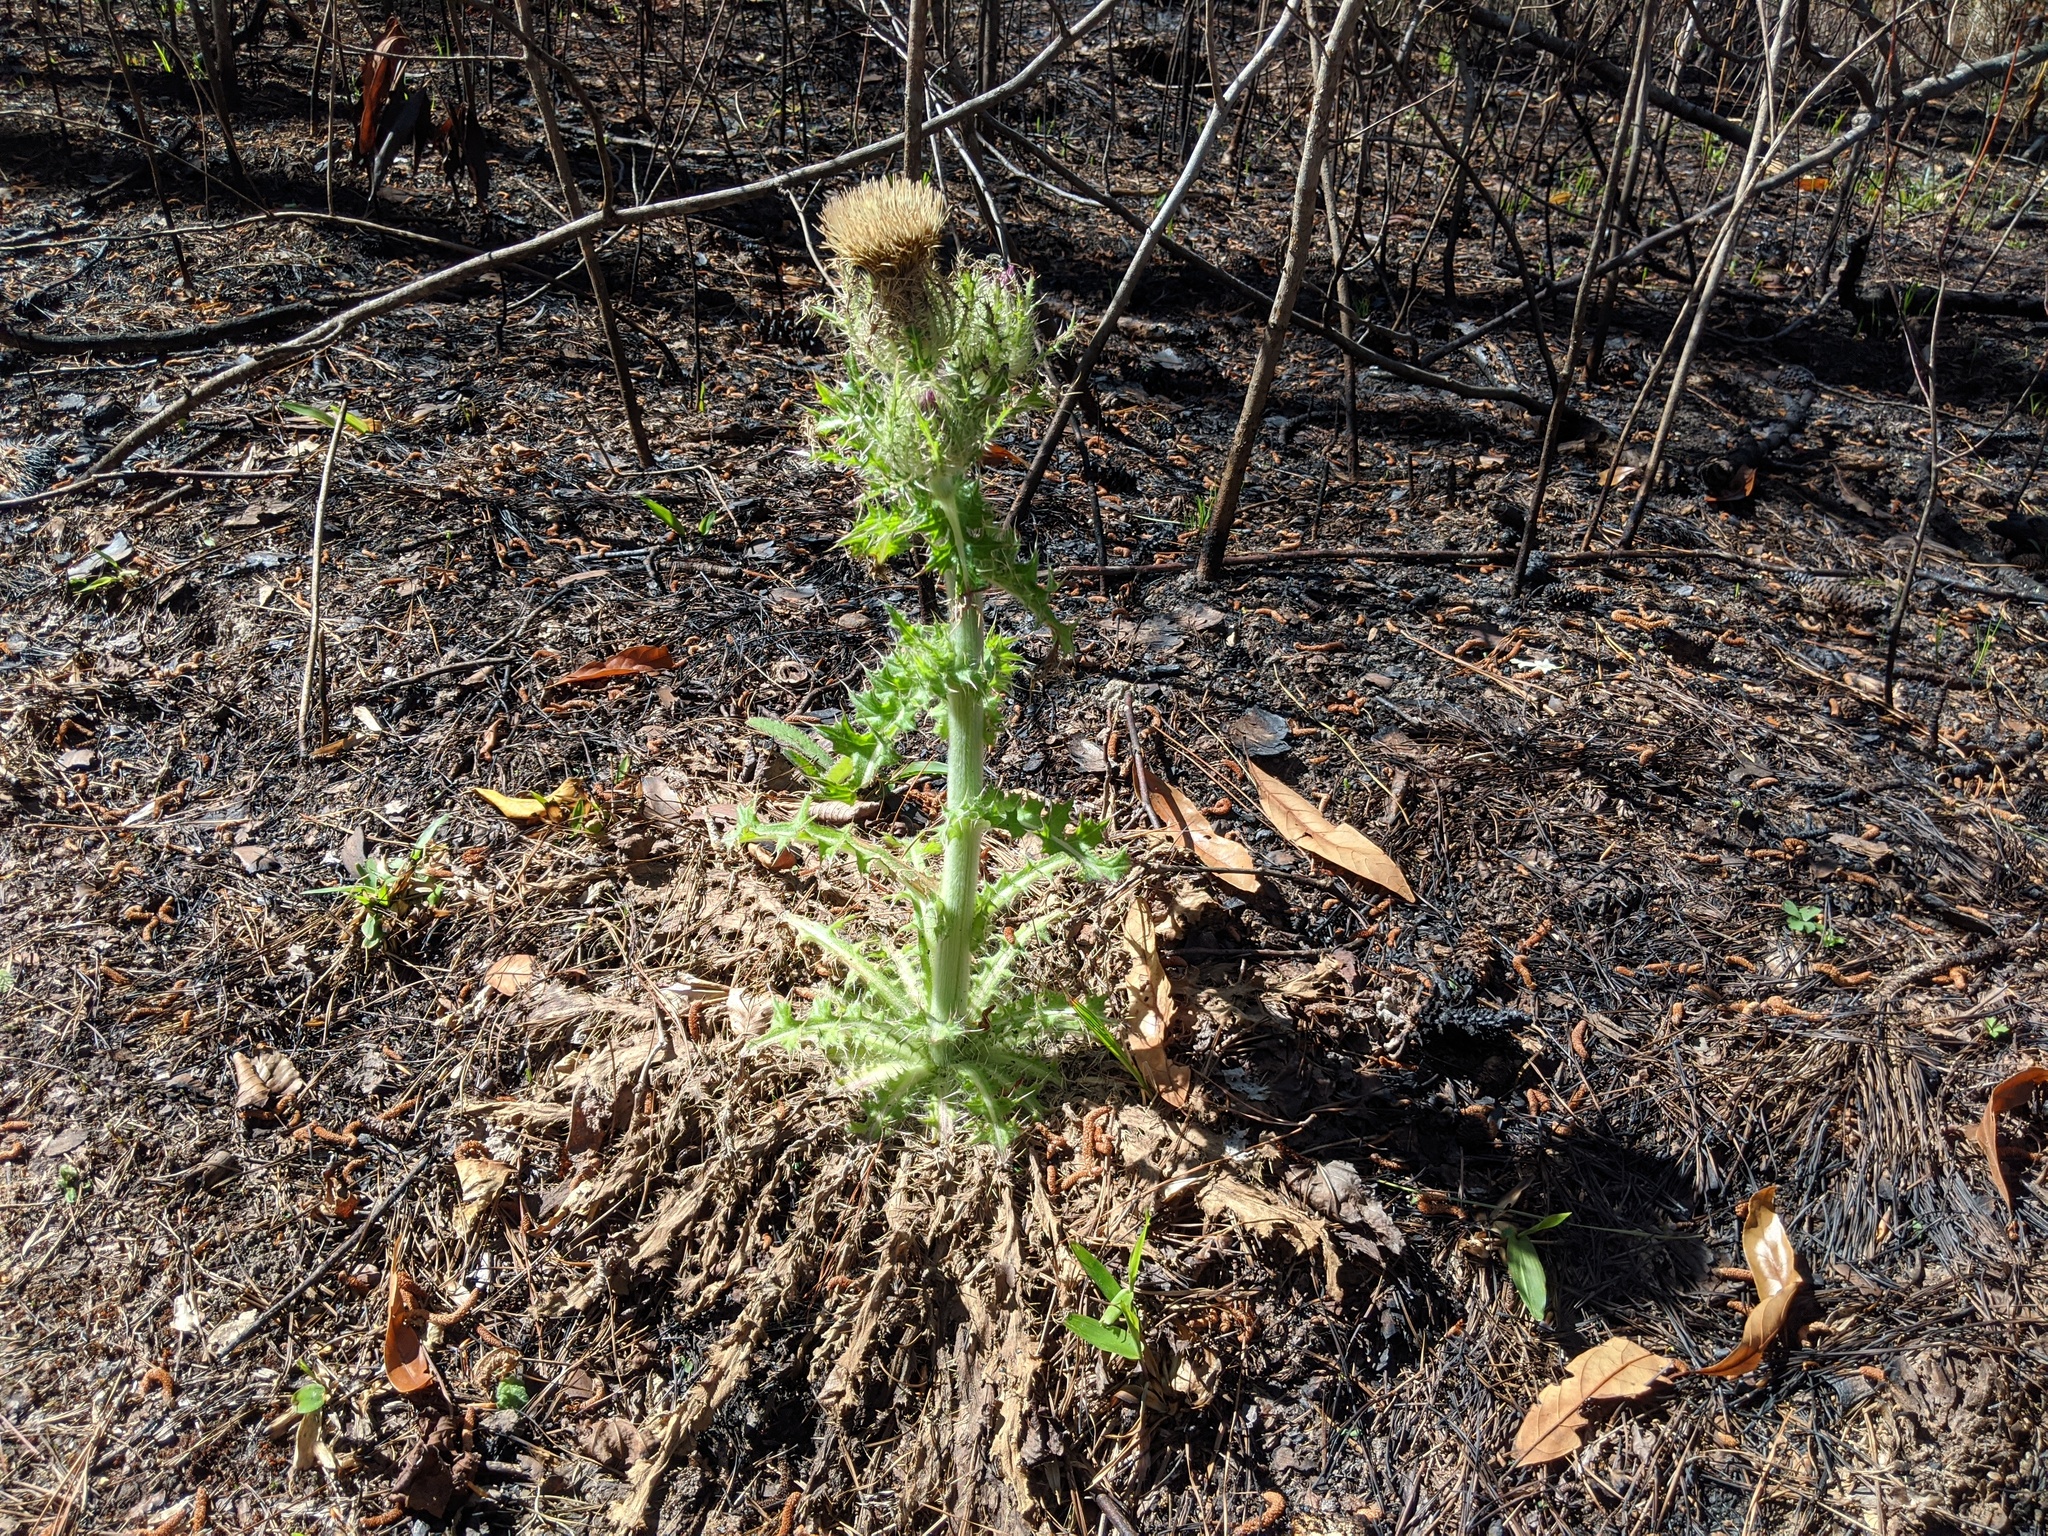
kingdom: Plantae
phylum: Tracheophyta
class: Magnoliopsida
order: Asterales
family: Asteraceae
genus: Cirsium
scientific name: Cirsium horridulum
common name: Bristly thistle
